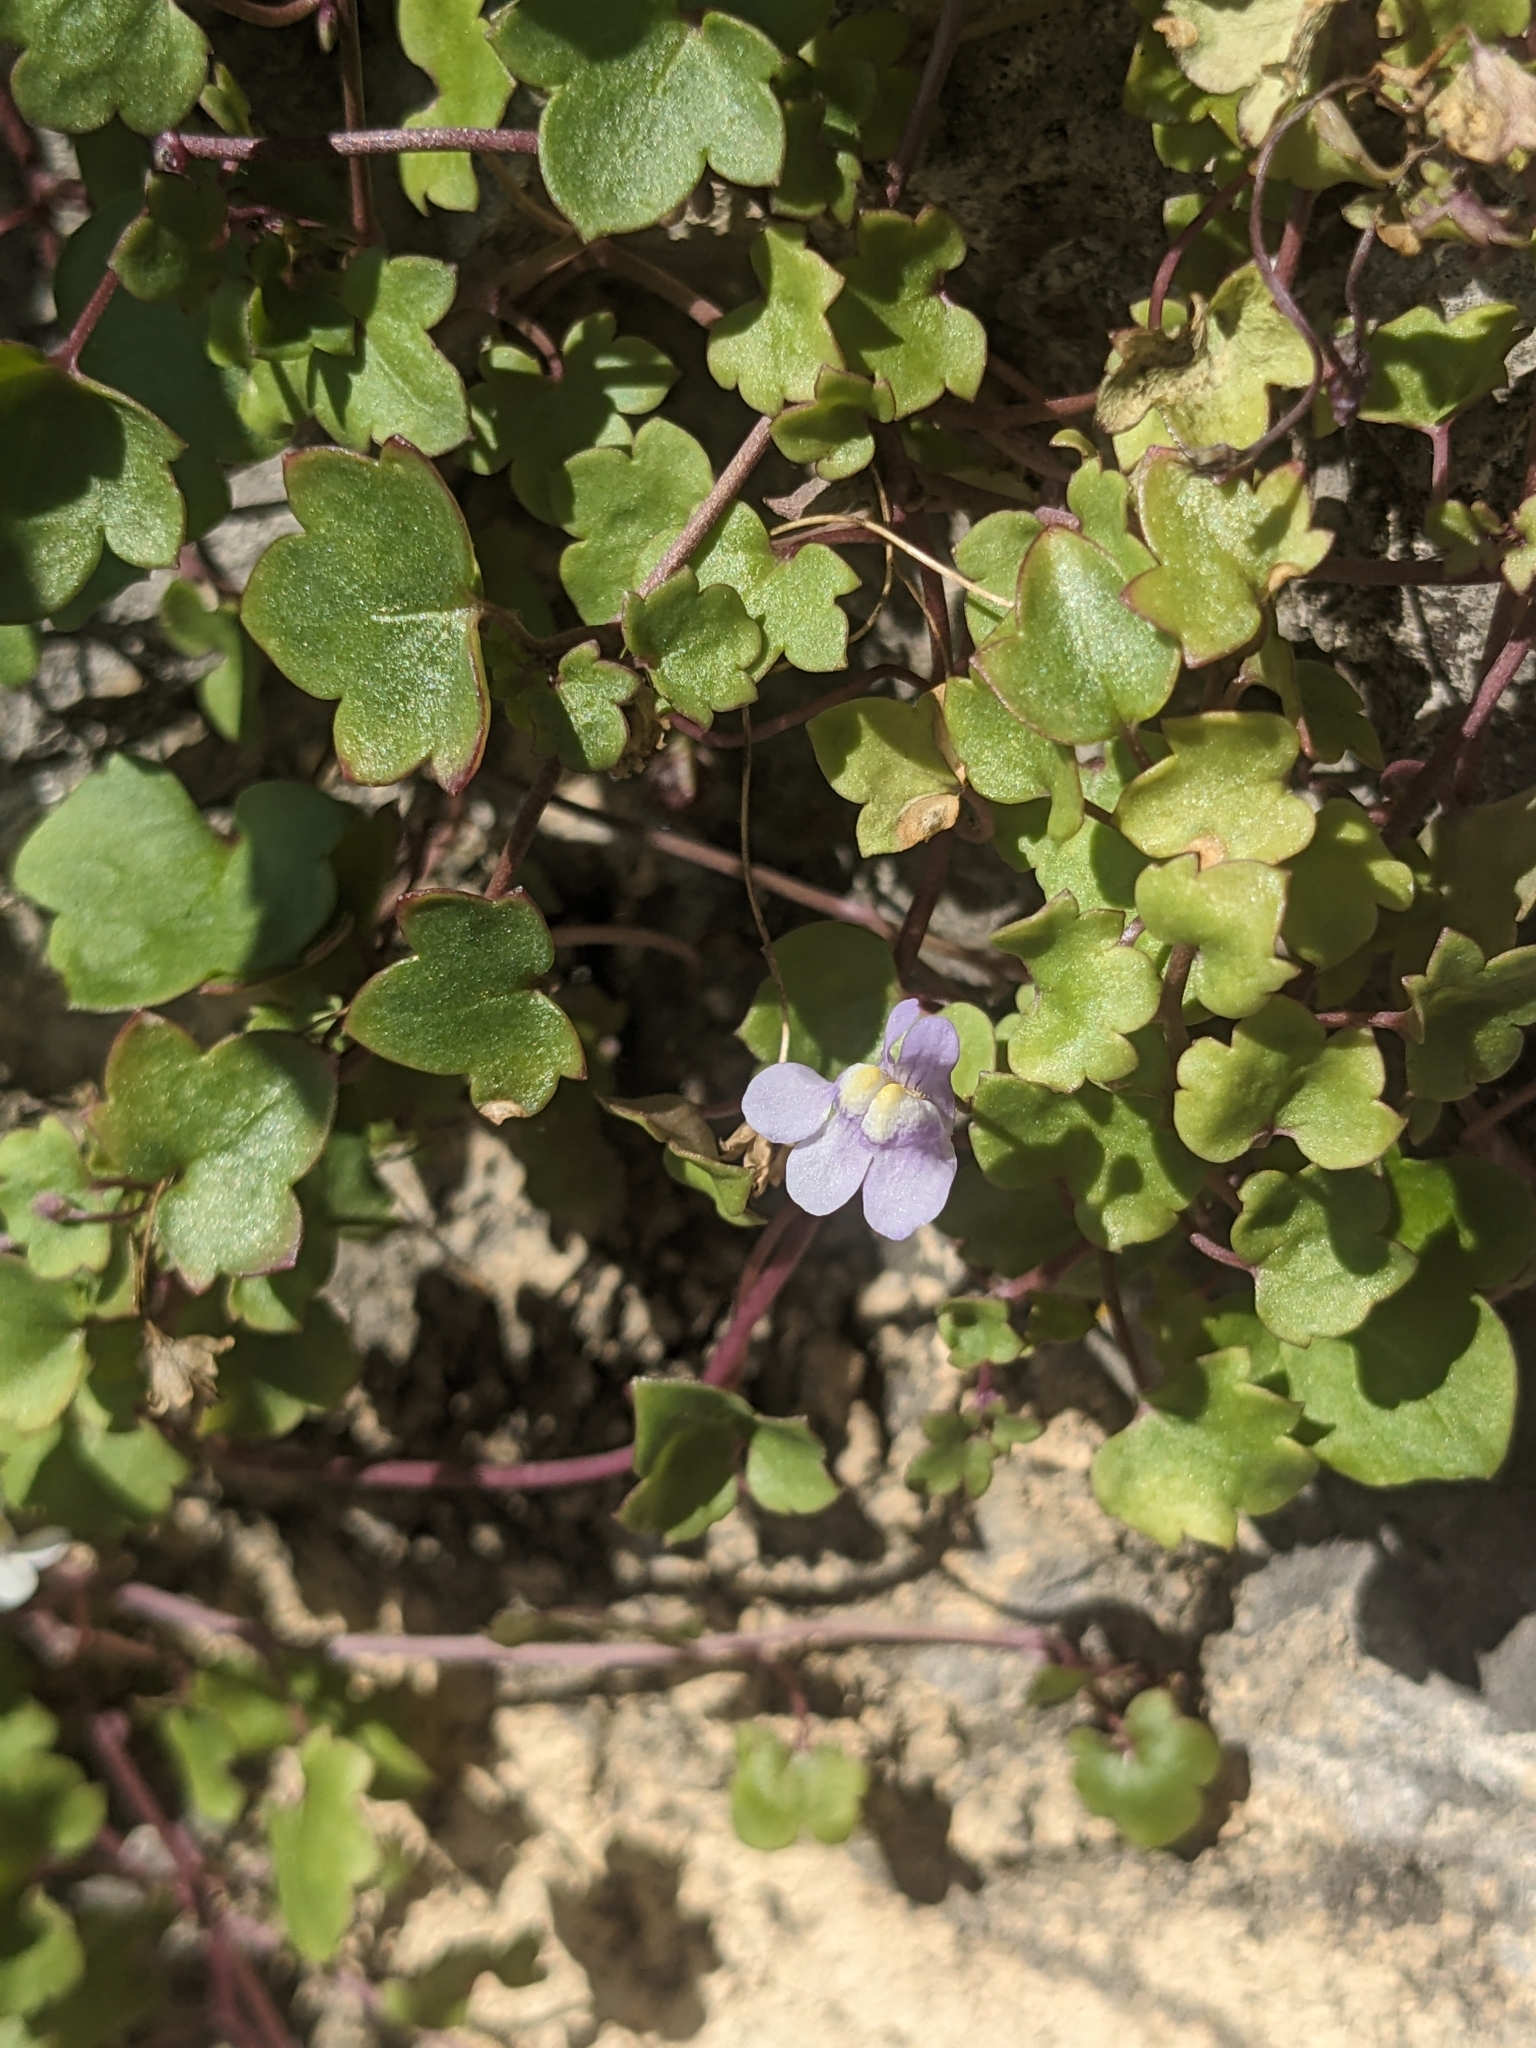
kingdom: Plantae
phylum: Tracheophyta
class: Magnoliopsida
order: Lamiales
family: Plantaginaceae
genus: Cymbalaria
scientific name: Cymbalaria muralis
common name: Ivy-leaved toadflax
